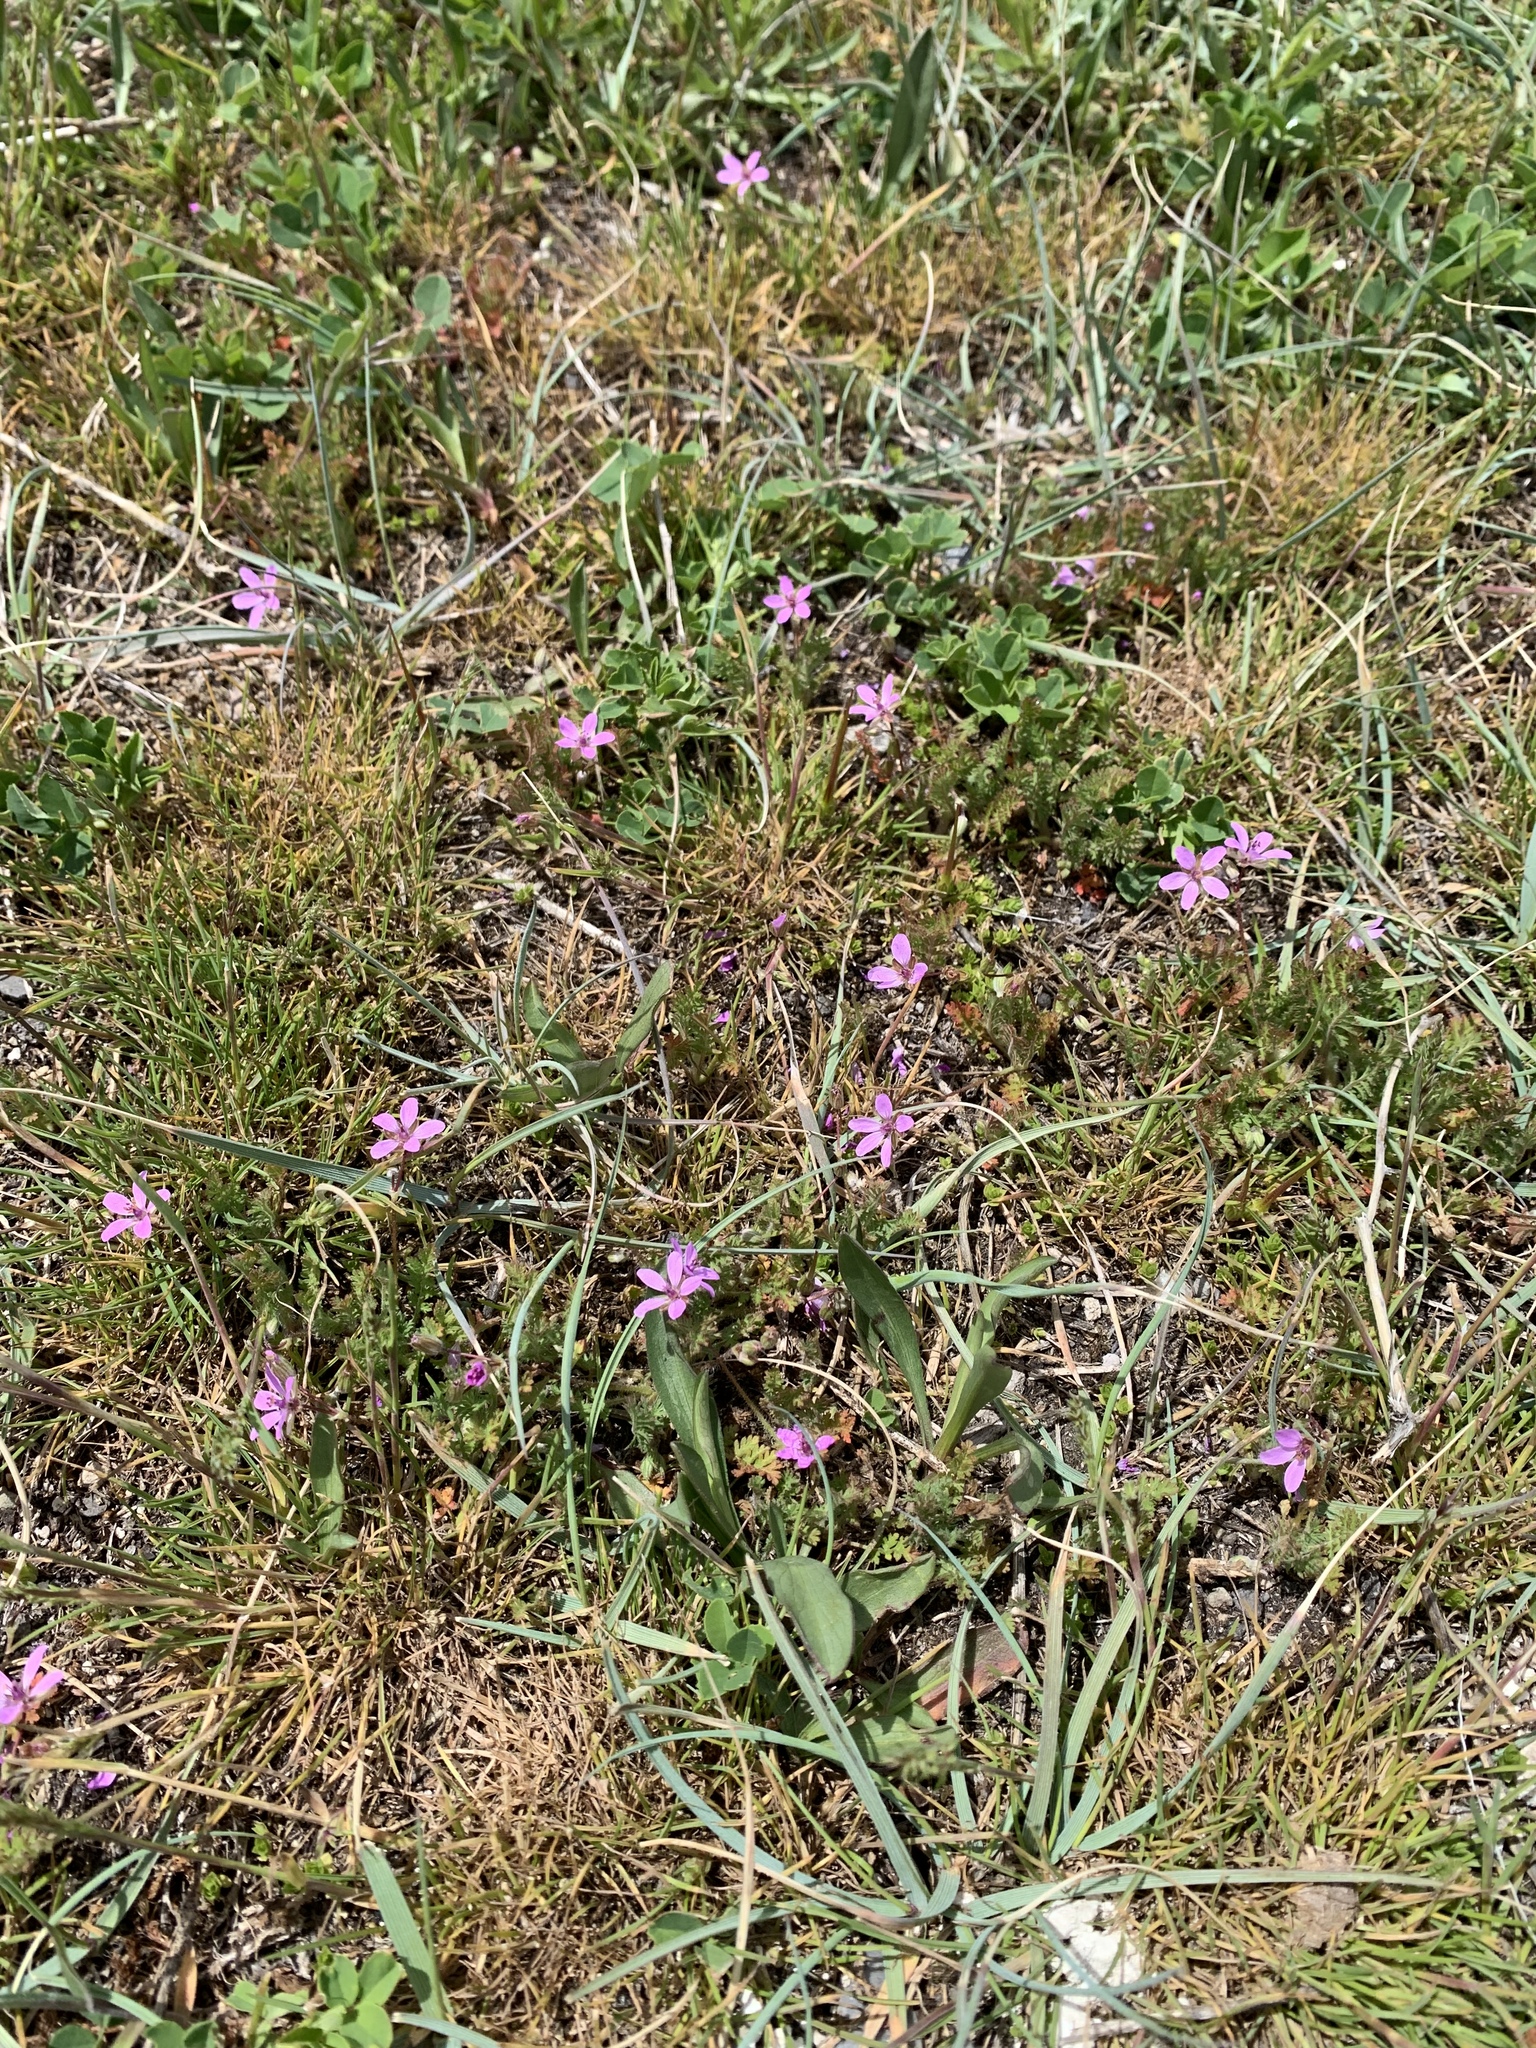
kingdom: Plantae
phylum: Tracheophyta
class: Magnoliopsida
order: Geraniales
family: Geraniaceae
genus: Erodium
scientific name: Erodium cicutarium
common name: Common stork's-bill
